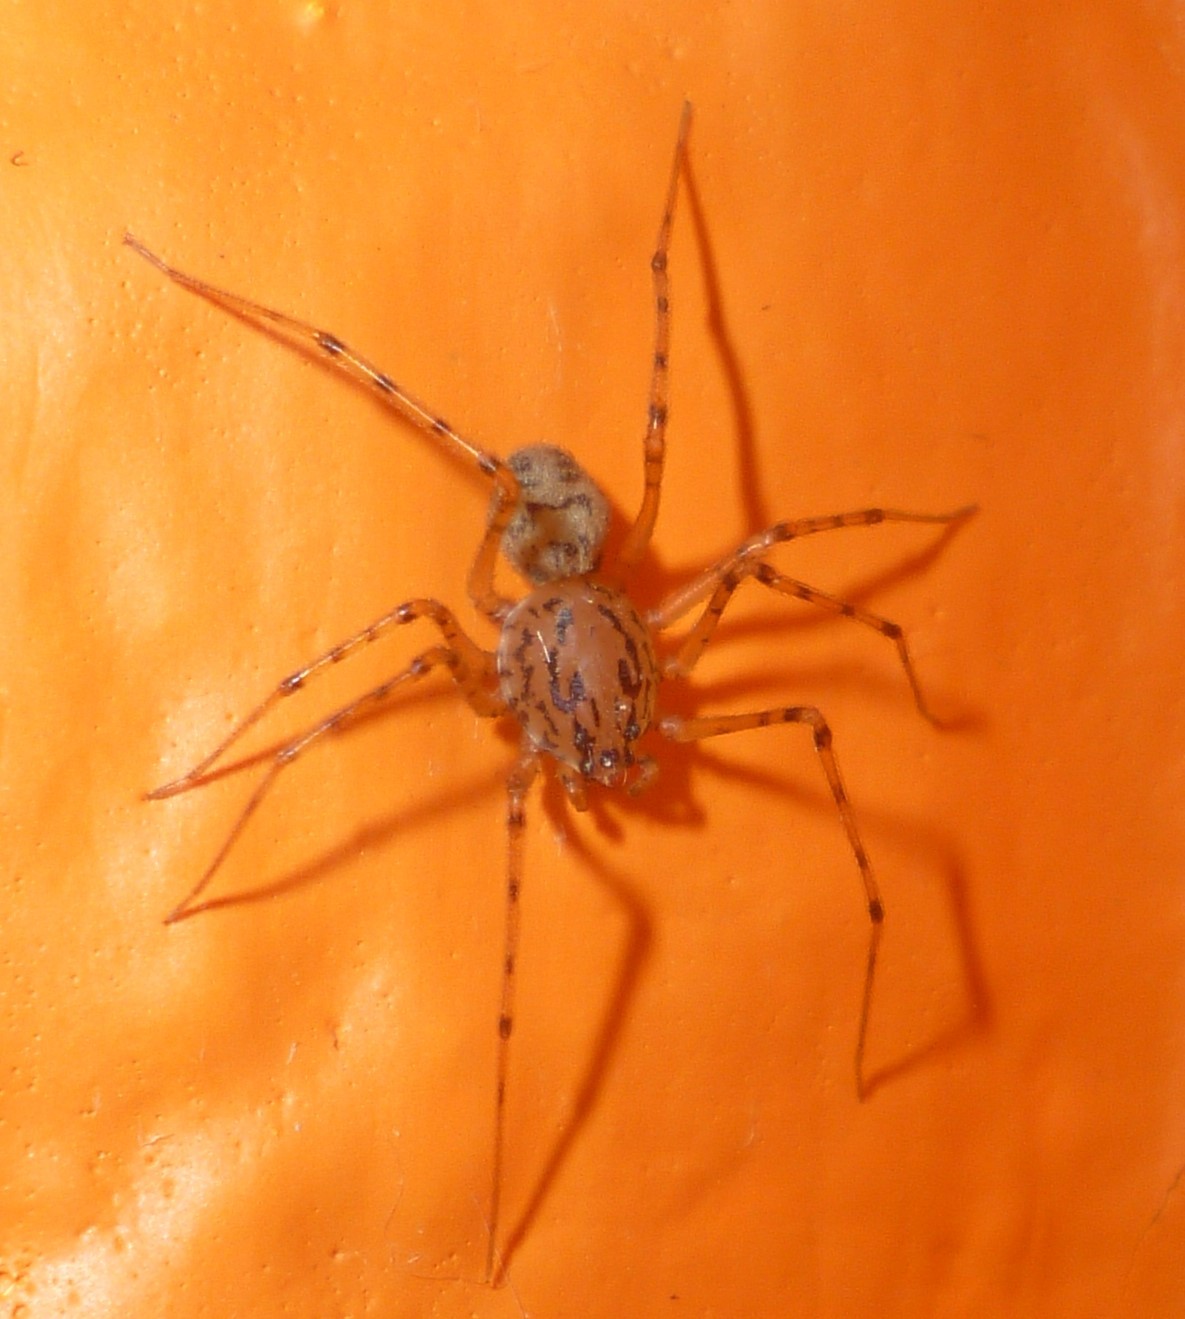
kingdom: Animalia
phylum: Arthropoda
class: Arachnida
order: Araneae
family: Scytodidae
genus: Scytodes
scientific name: Scytodes thoracica
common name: Spitting spider
